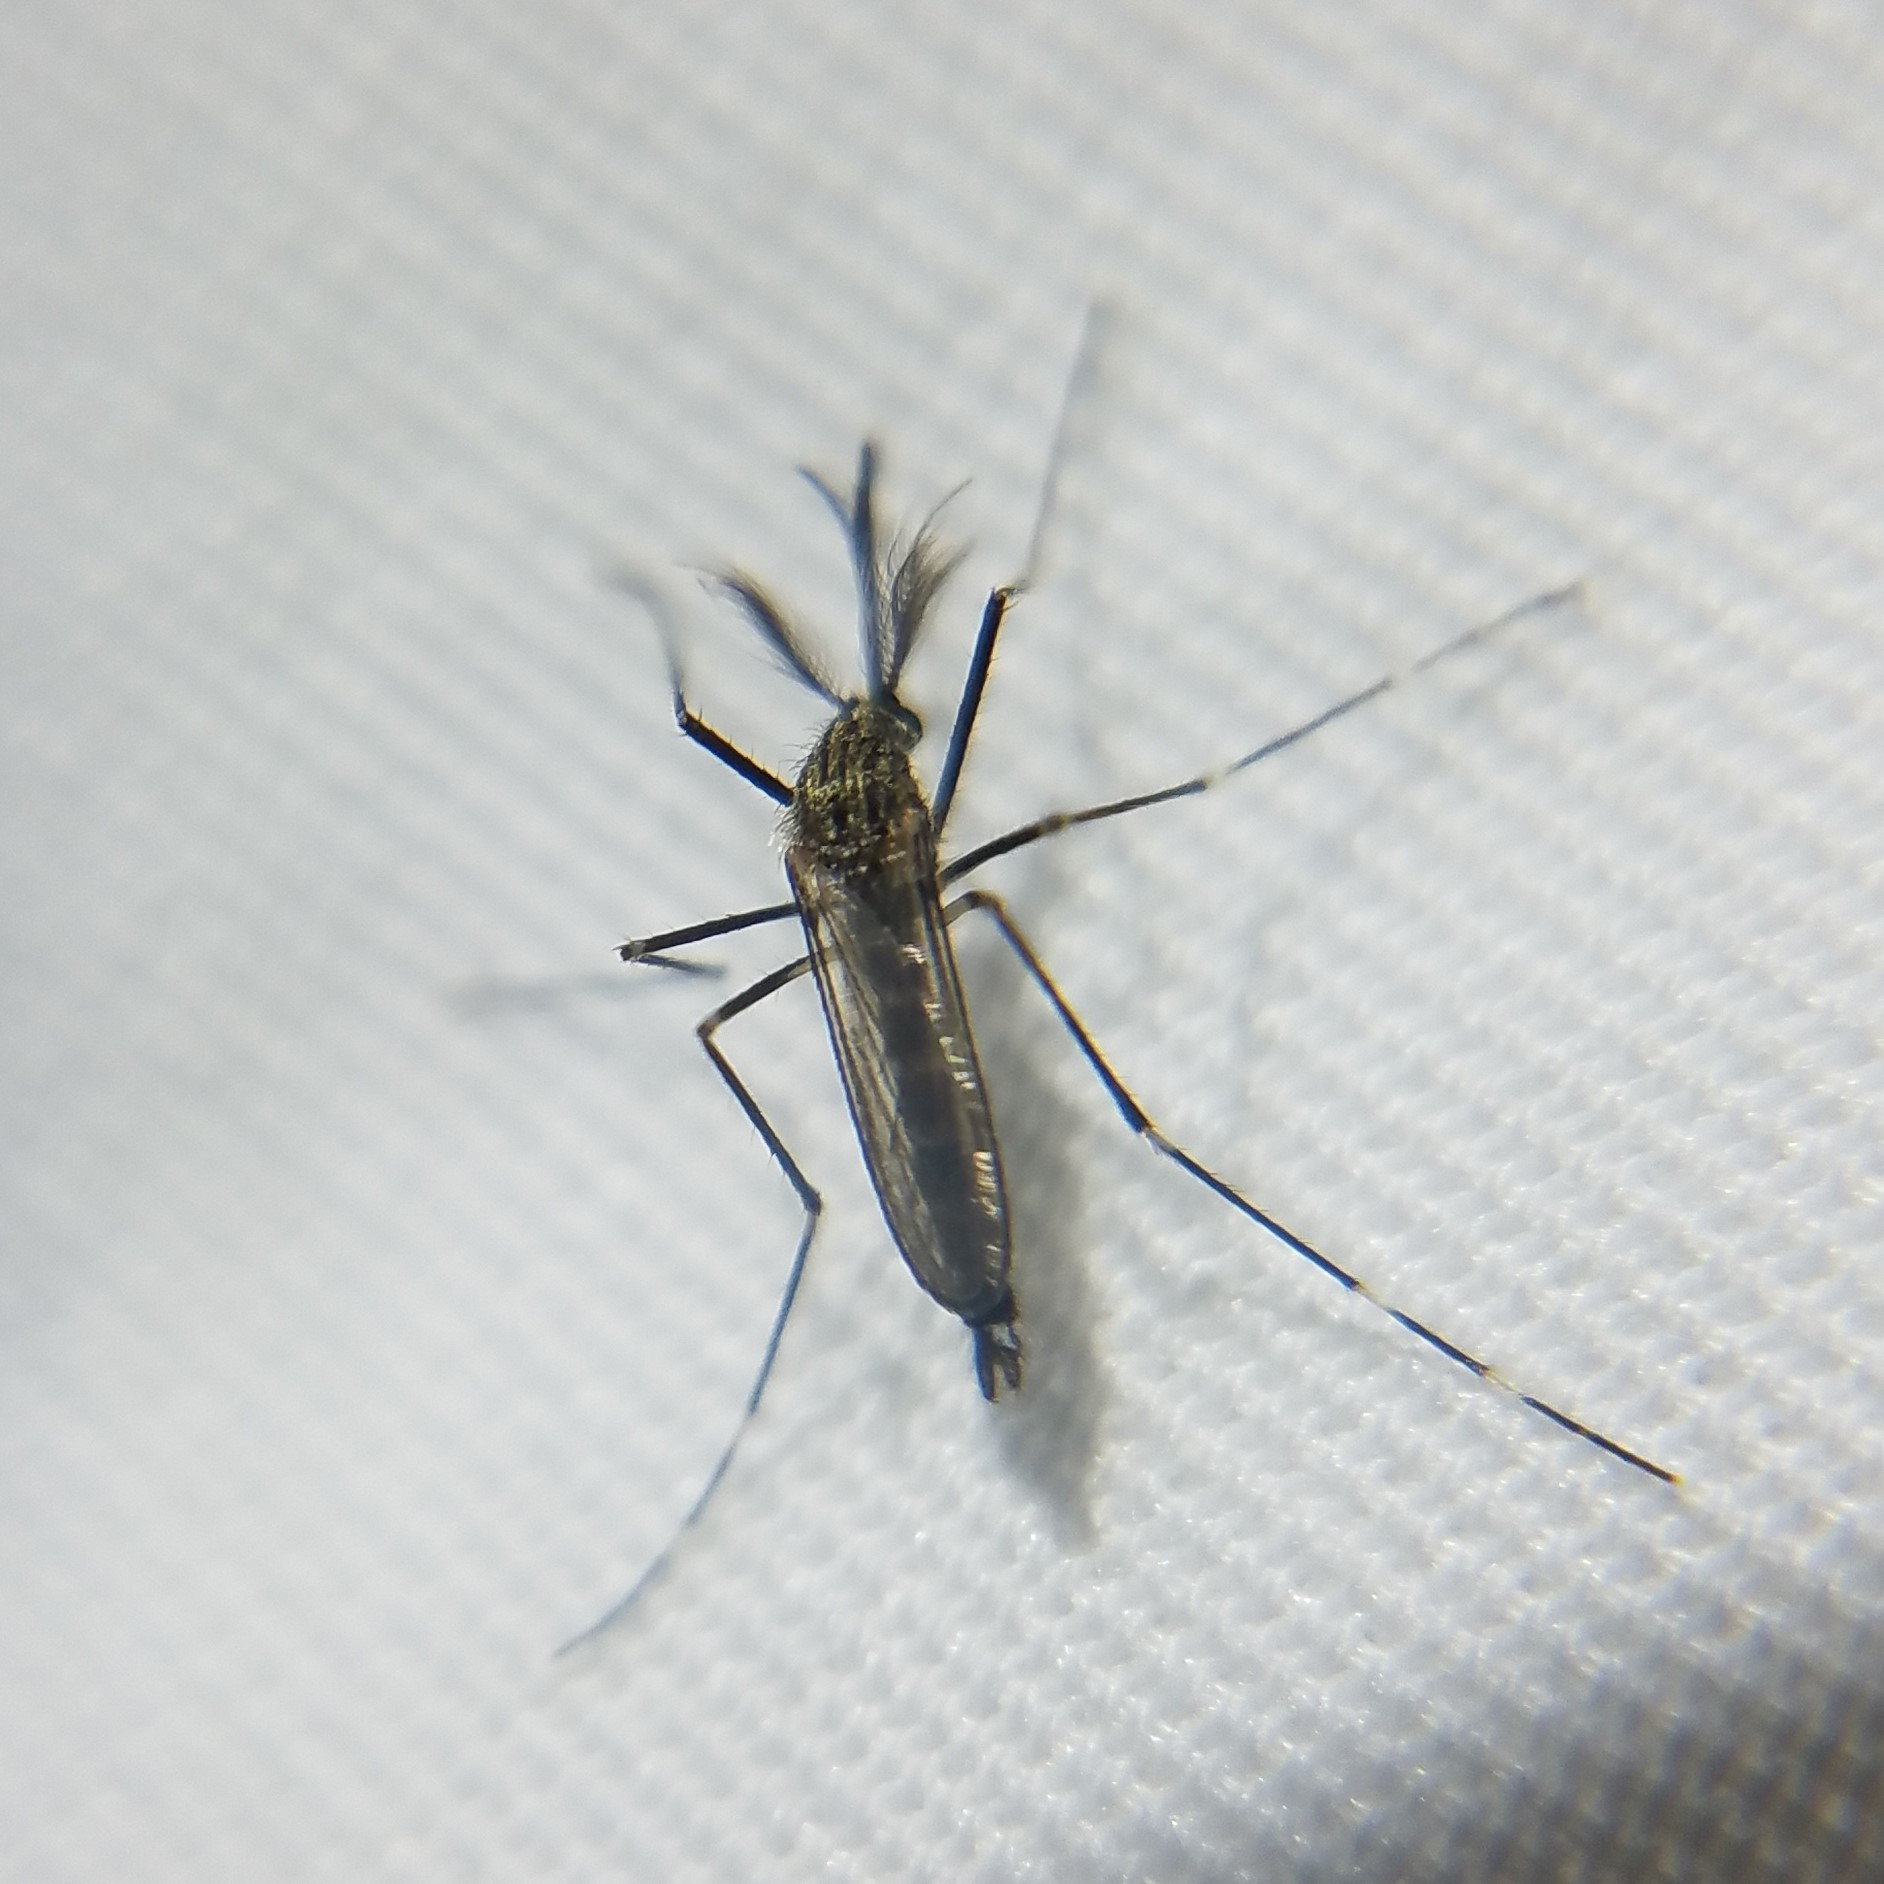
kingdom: Animalia
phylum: Arthropoda
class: Insecta
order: Diptera
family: Culicidae
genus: Aedes
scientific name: Aedes japonicus
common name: Asian bush mosquito
